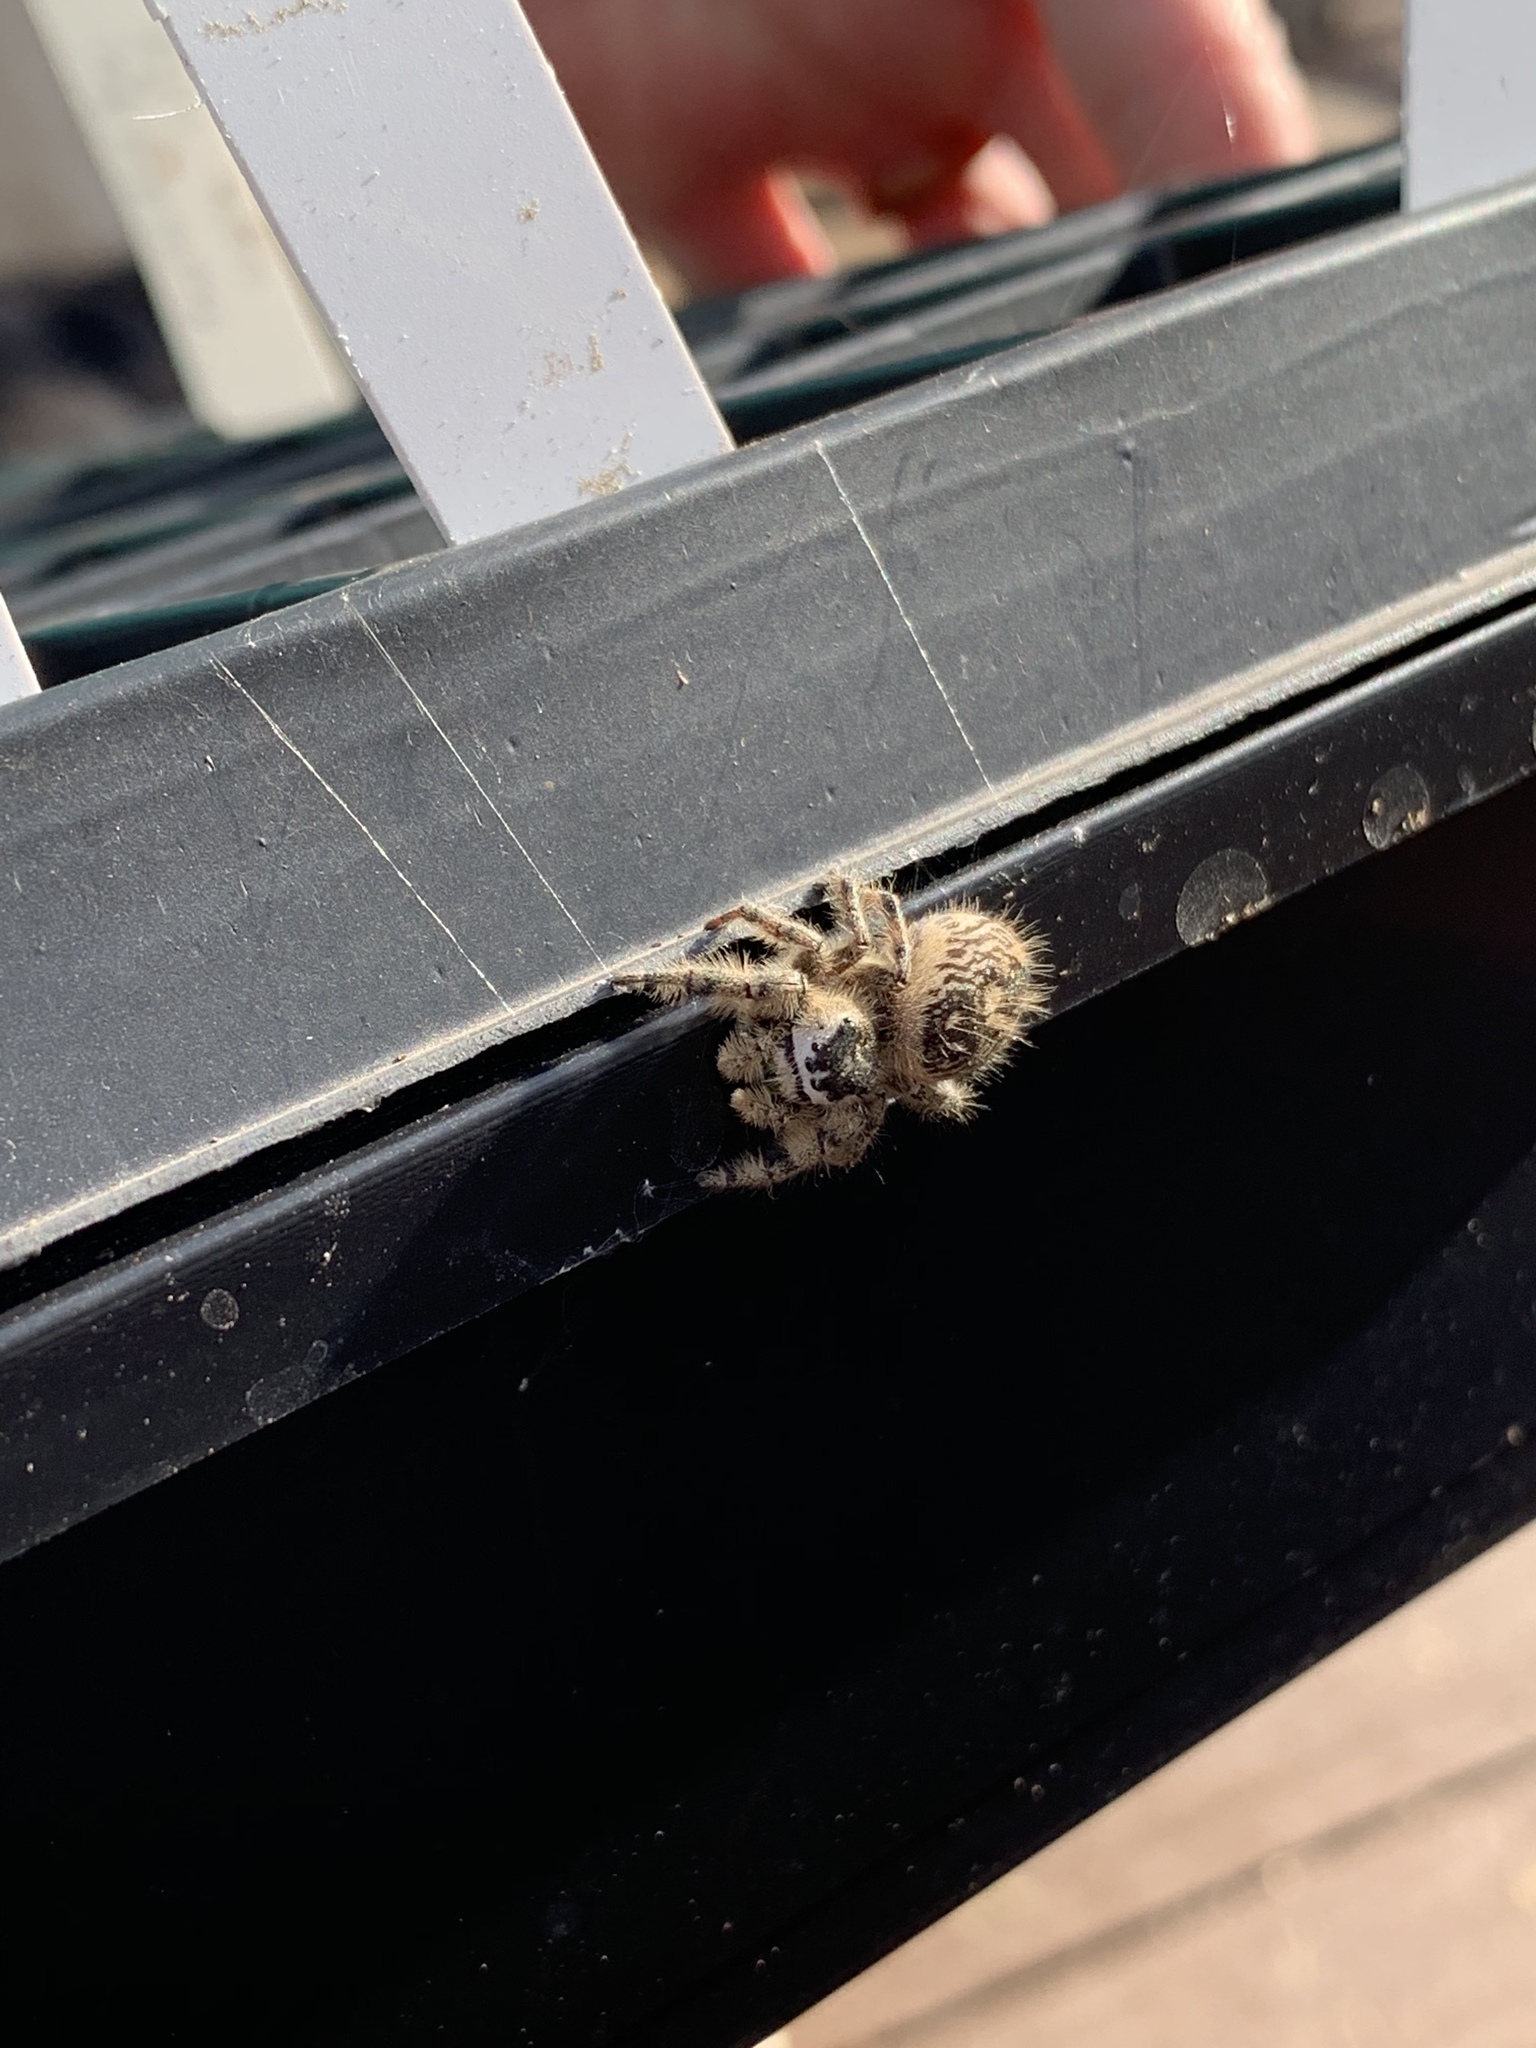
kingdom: Animalia
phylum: Arthropoda
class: Arachnida
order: Araneae
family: Salticidae
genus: Phidippus
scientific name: Phidippus otiosus
